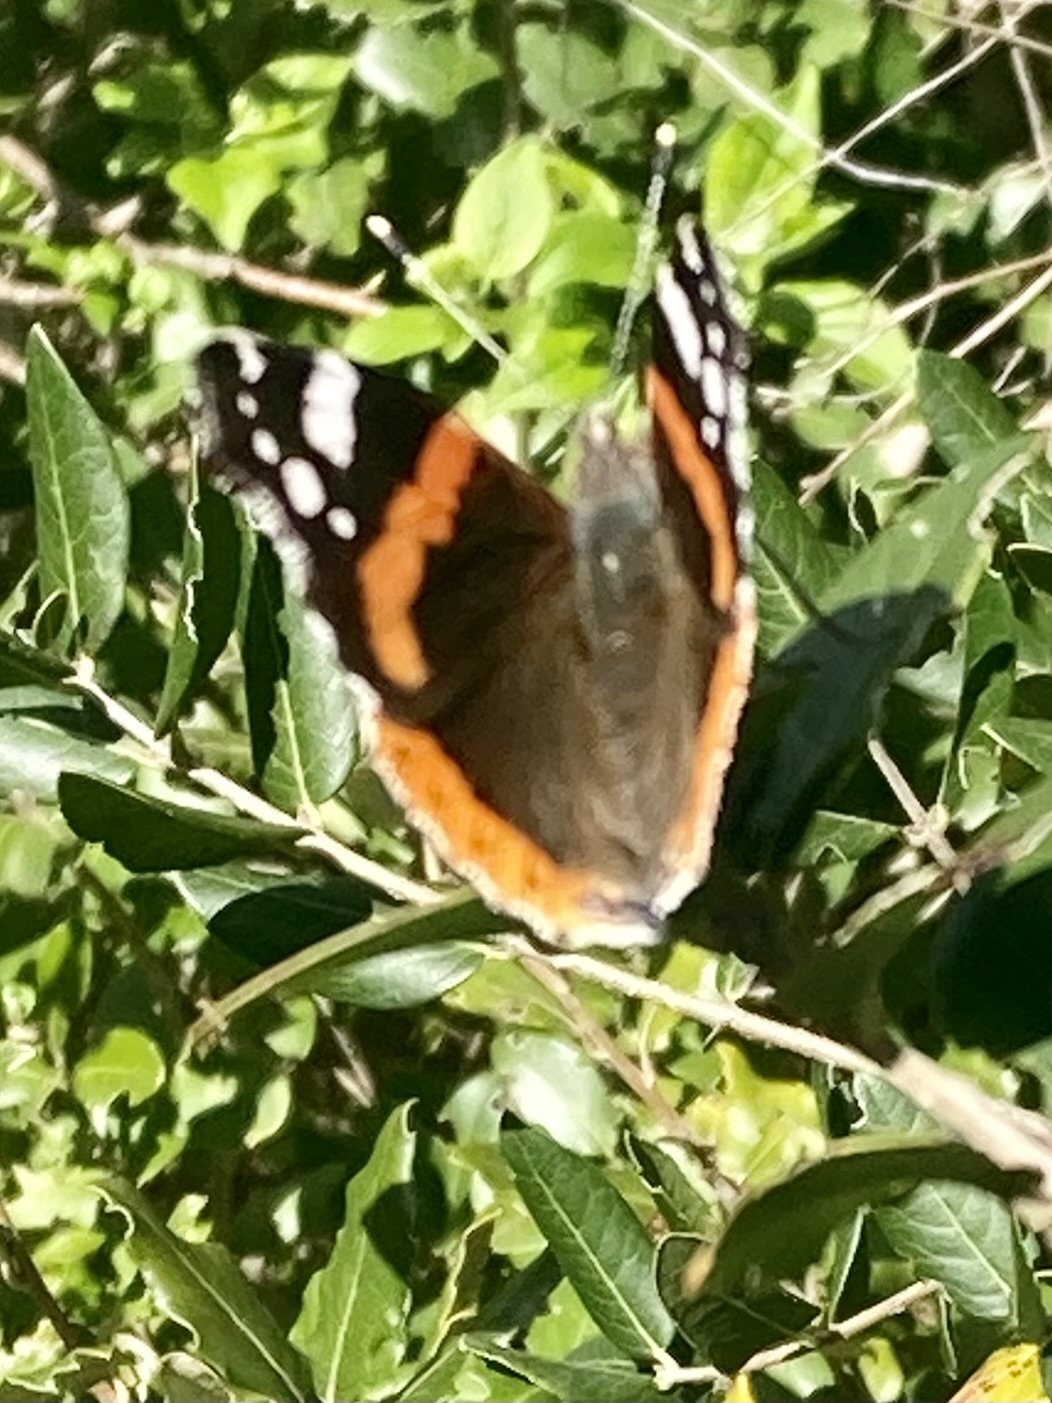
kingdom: Animalia
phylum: Arthropoda
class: Insecta
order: Lepidoptera
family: Nymphalidae
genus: Vanessa
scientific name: Vanessa atalanta
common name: Red admiral
